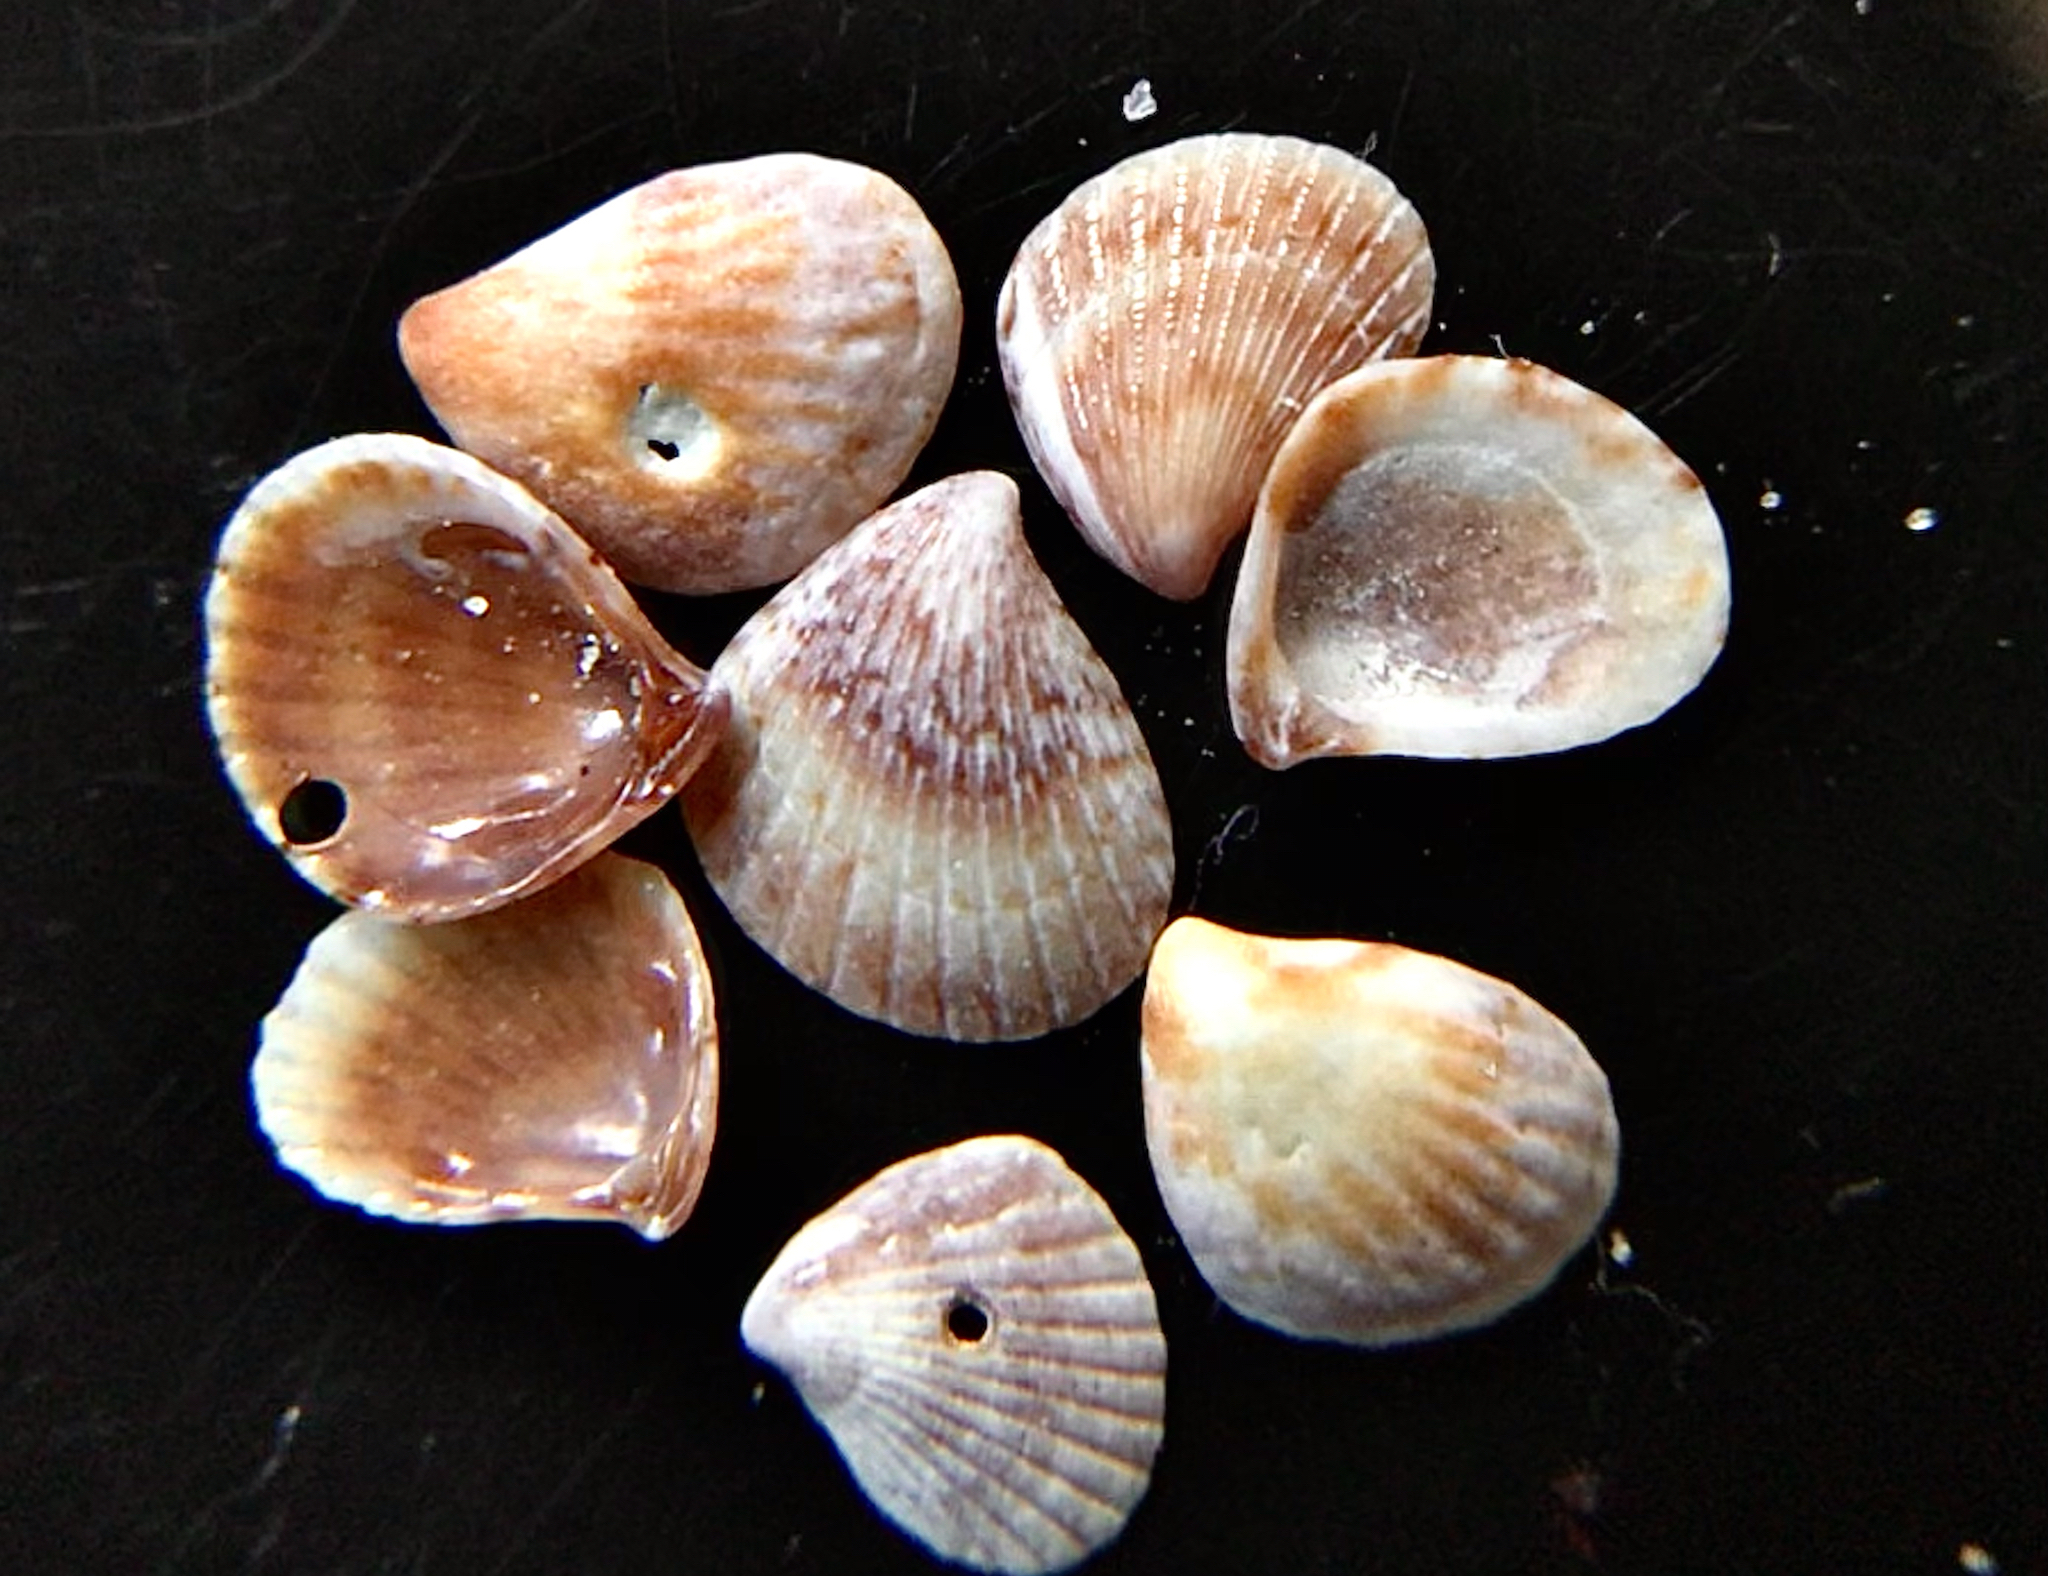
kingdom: Animalia
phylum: Mollusca
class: Bivalvia
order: Carditida
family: Carditidae
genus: Pteromeris
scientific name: Pteromeris perplana
